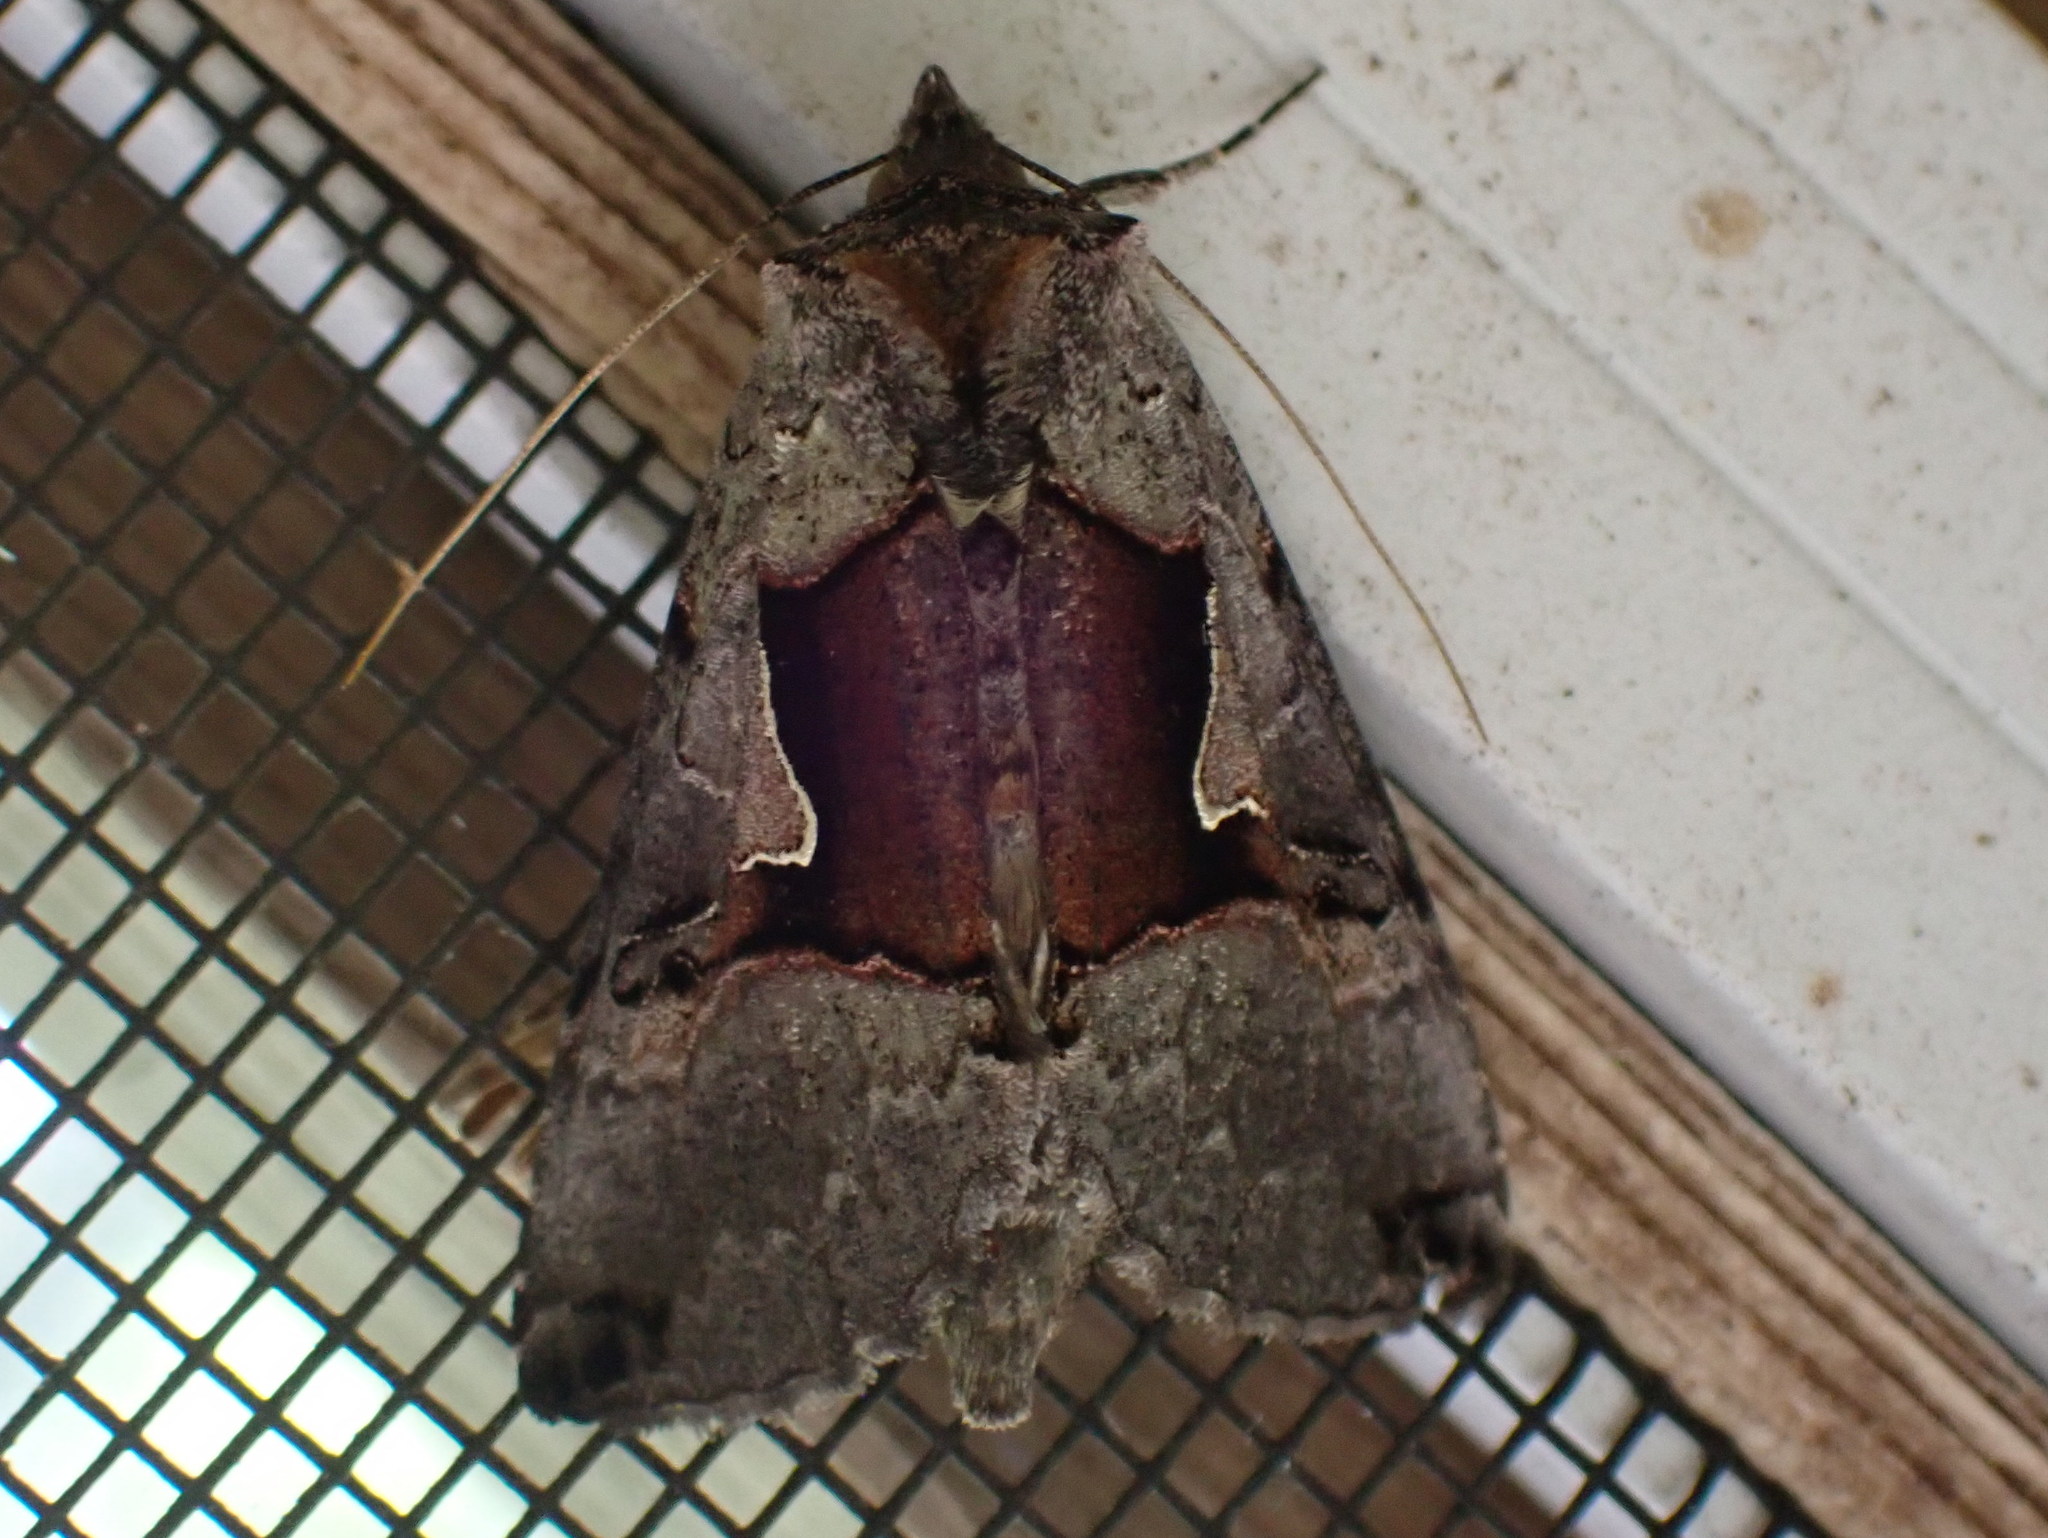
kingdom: Animalia
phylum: Arthropoda
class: Insecta
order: Lepidoptera
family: Noctuidae
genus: Autographa
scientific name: Autographa ampla
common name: Large looper moth
